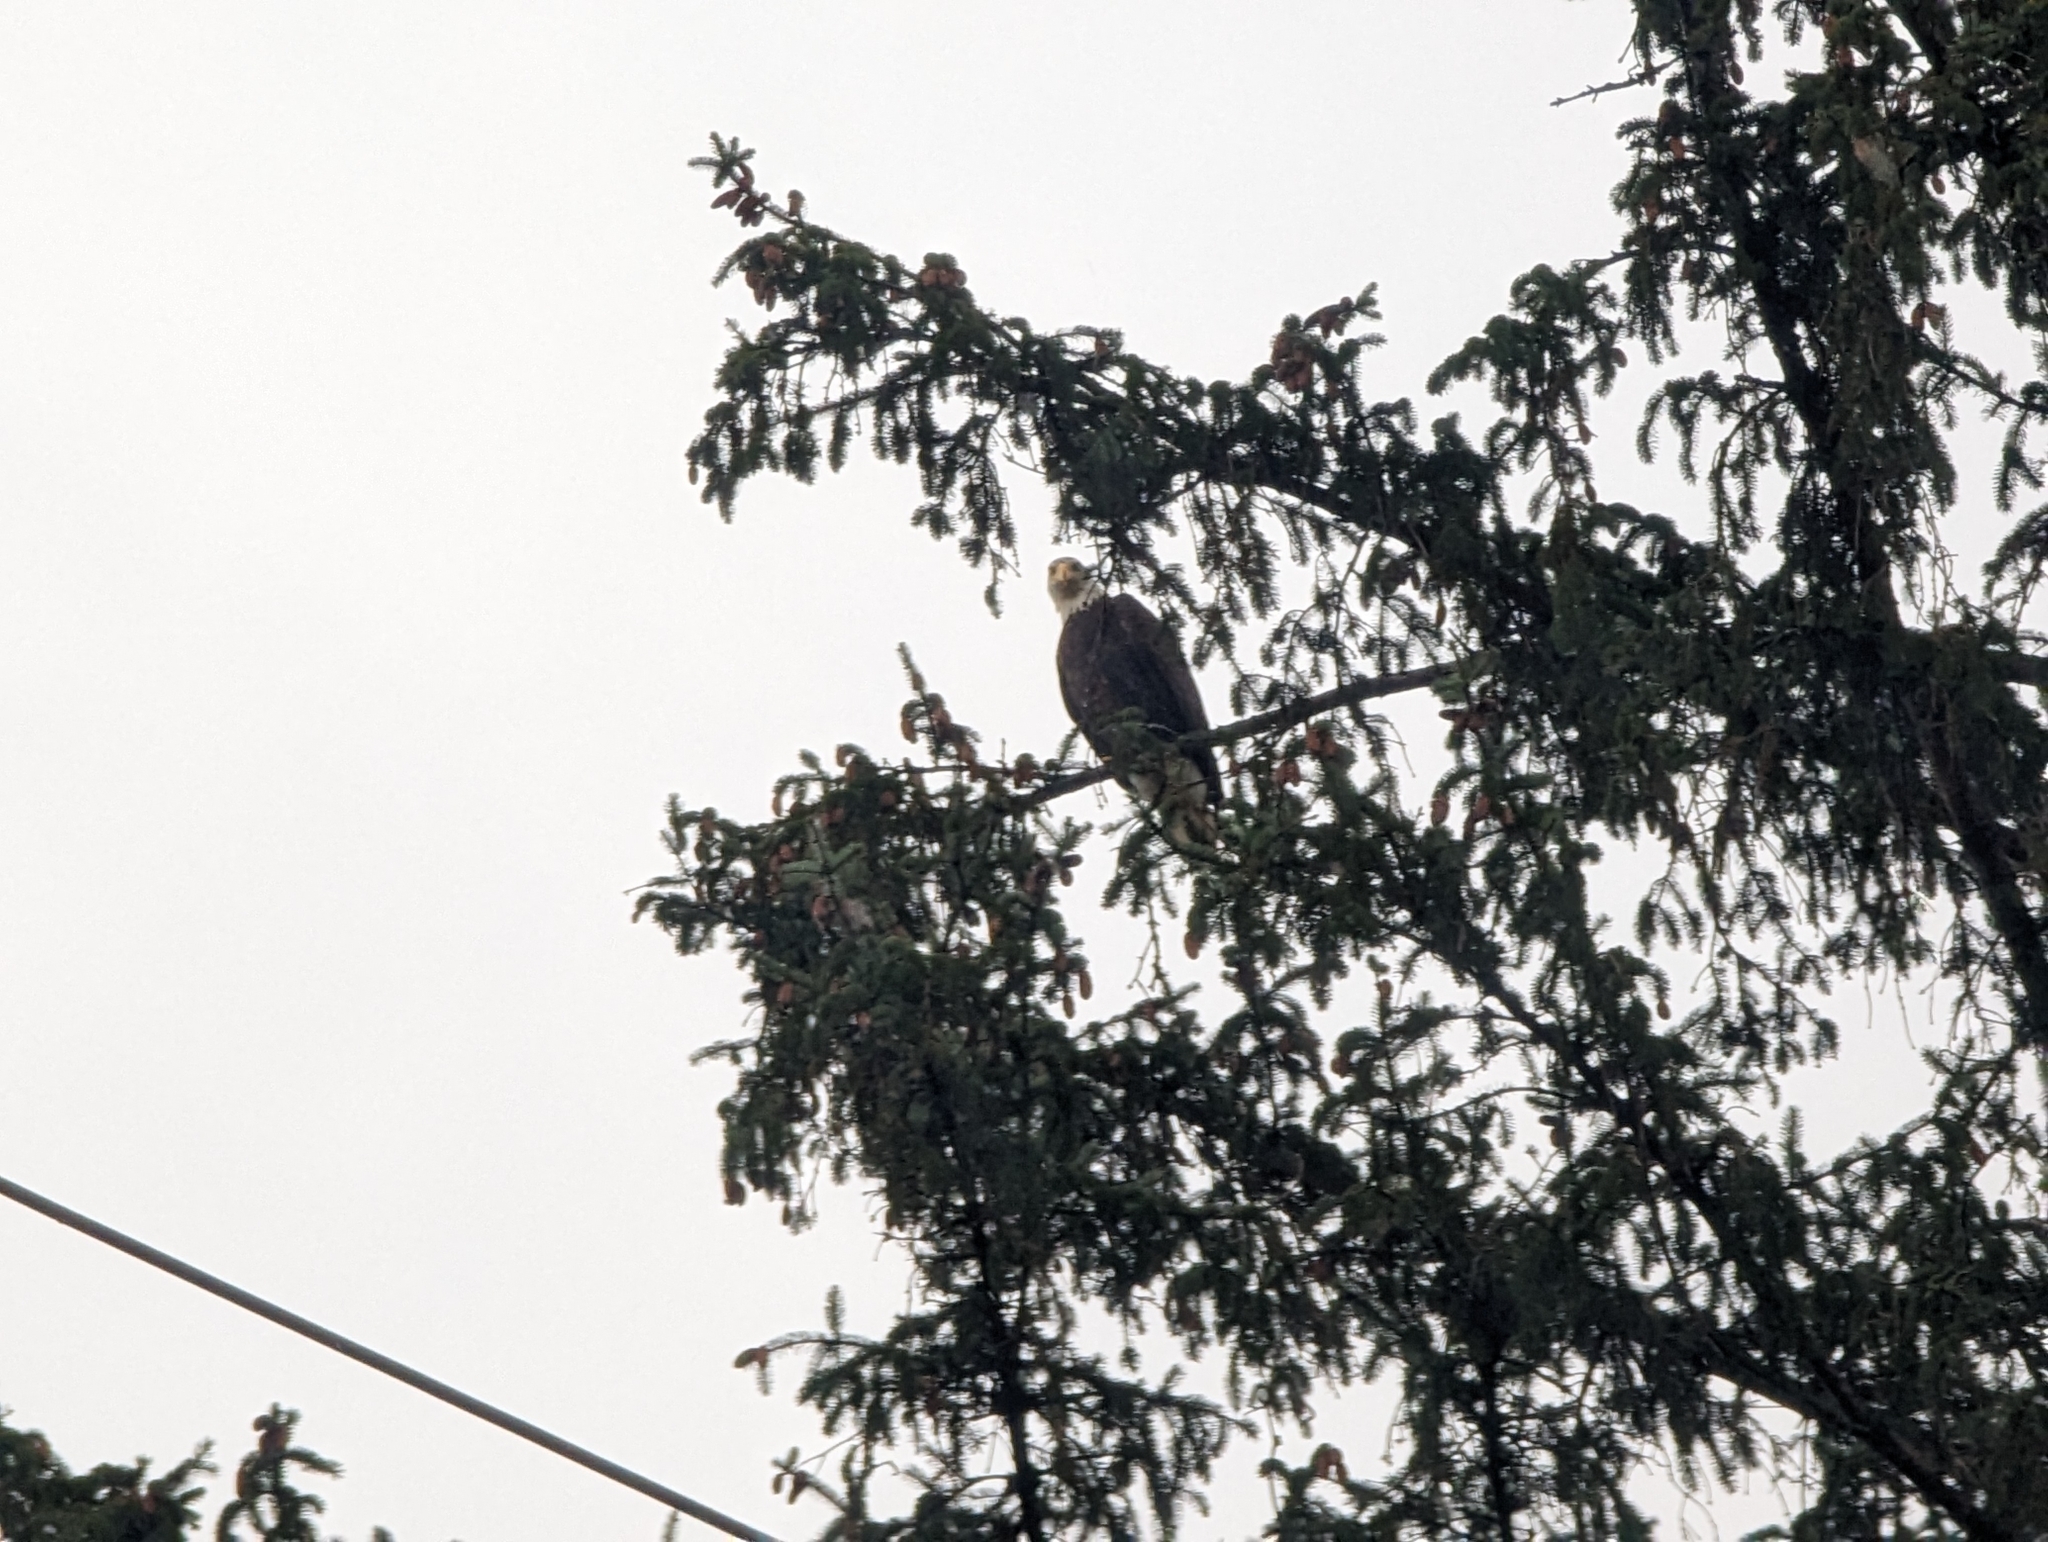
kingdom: Animalia
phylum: Chordata
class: Aves
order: Accipitriformes
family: Accipitridae
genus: Haliaeetus
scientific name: Haliaeetus leucocephalus
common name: Bald eagle
